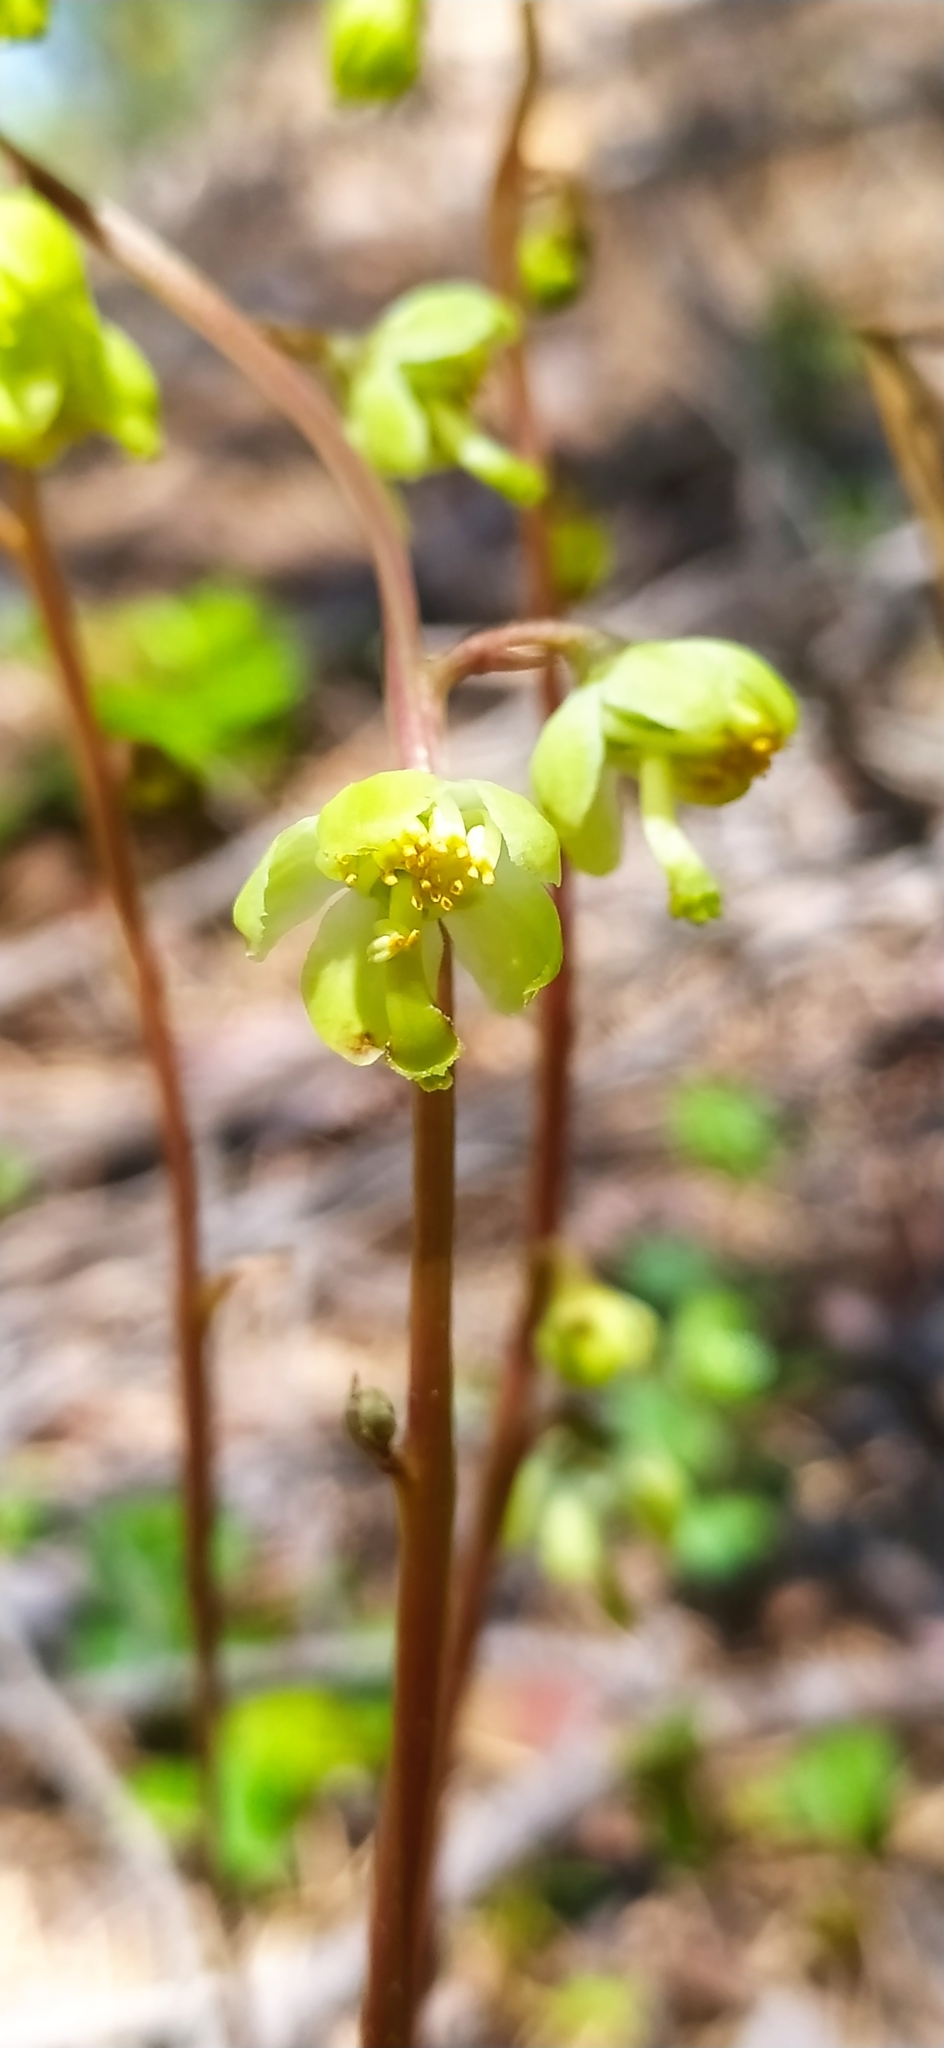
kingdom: Plantae
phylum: Tracheophyta
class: Magnoliopsida
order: Ericales
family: Ericaceae
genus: Pyrola
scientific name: Pyrola chlorantha
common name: Green wintergreen
